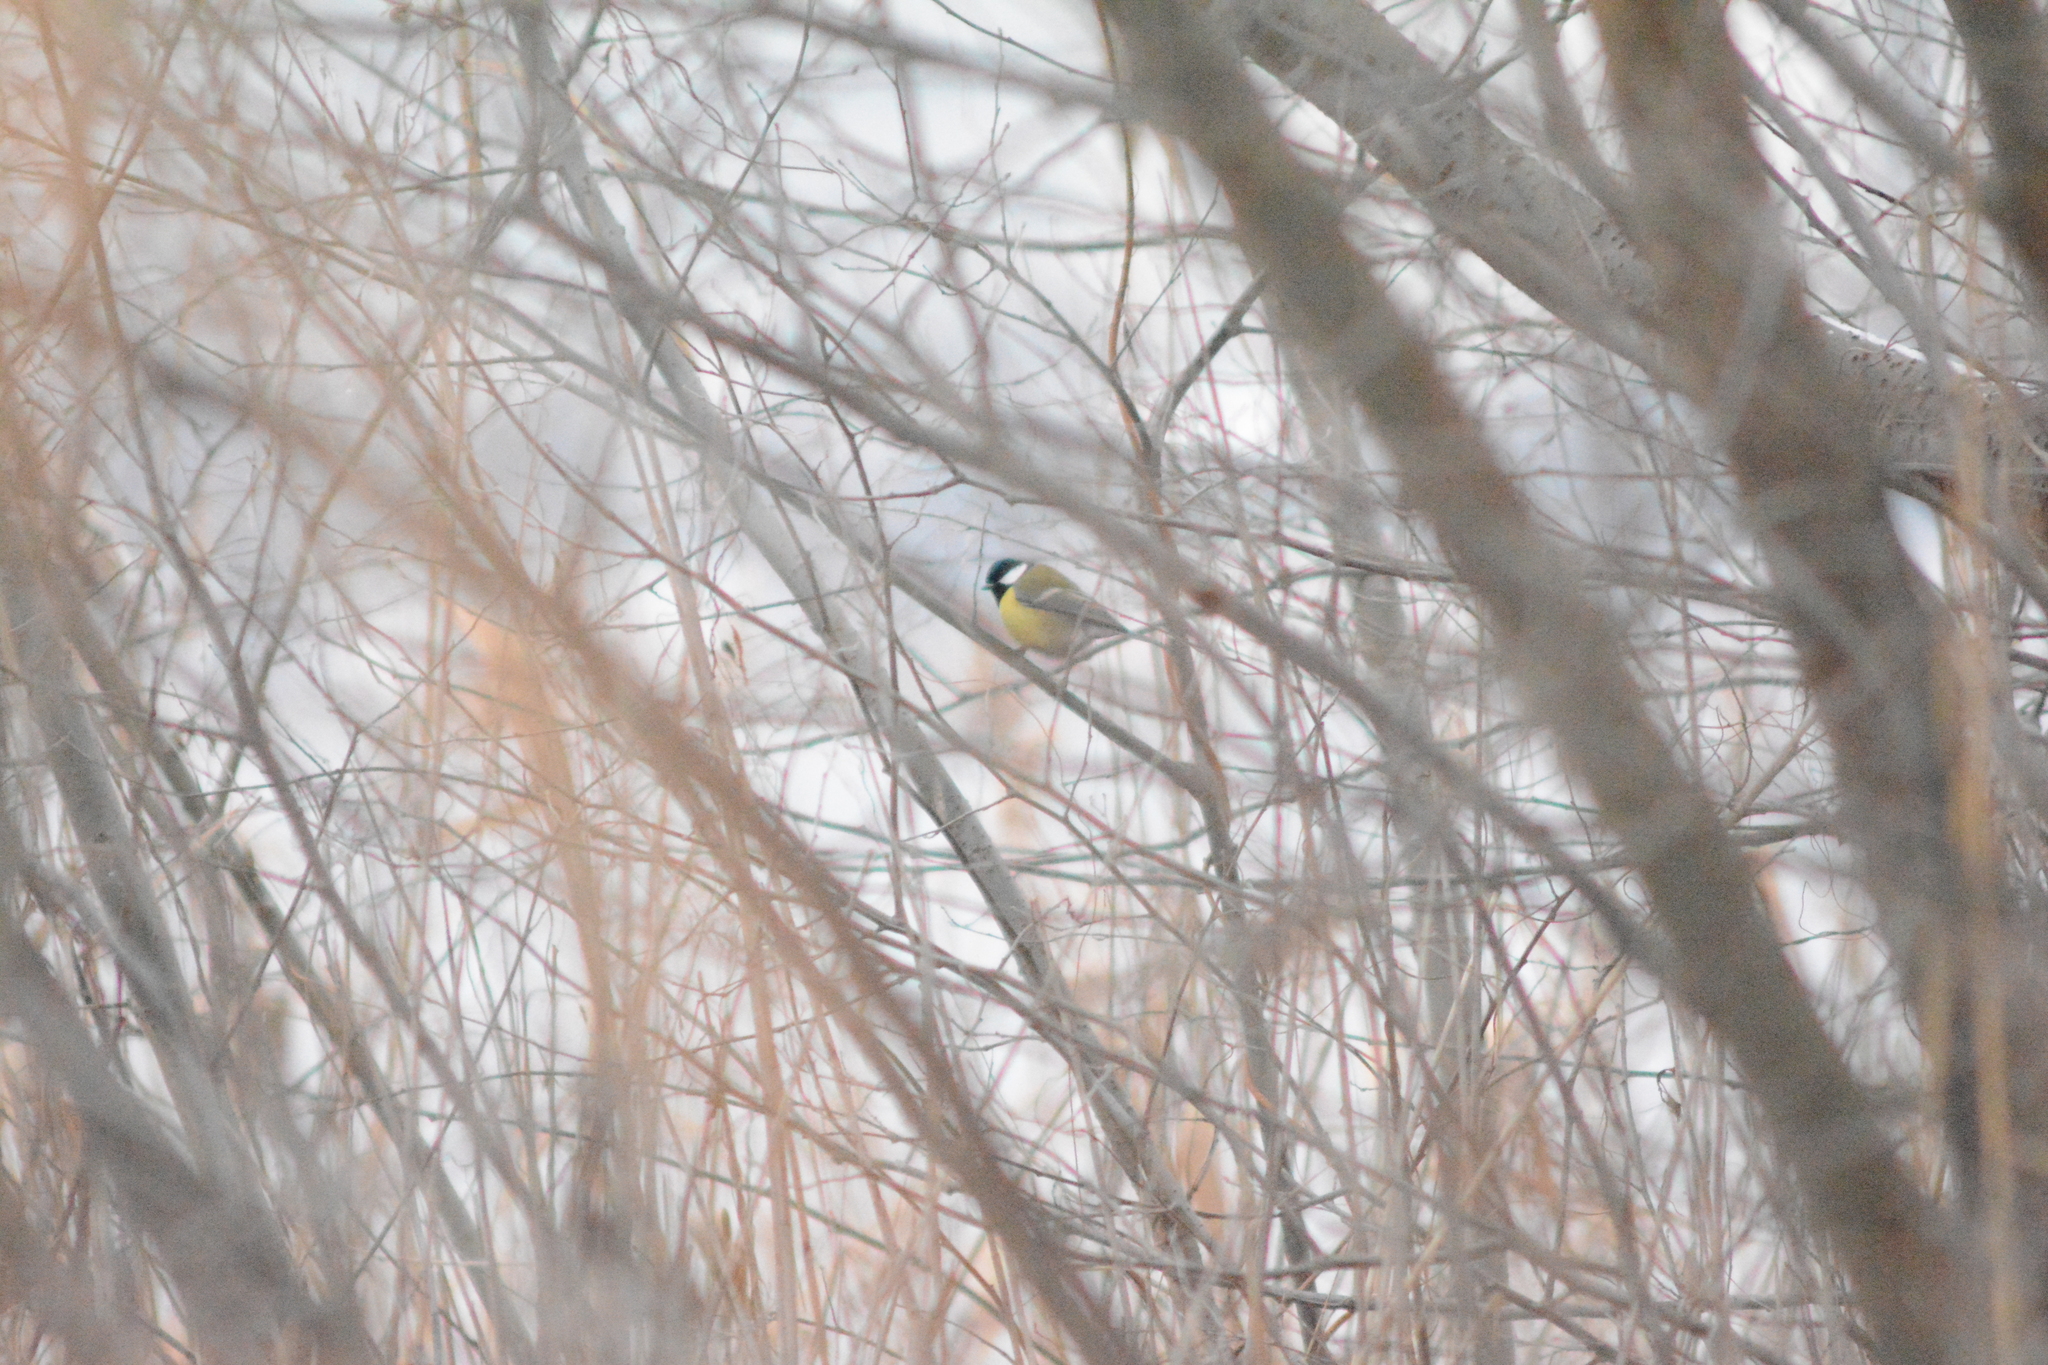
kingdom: Animalia
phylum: Chordata
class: Aves
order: Passeriformes
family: Paridae
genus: Parus
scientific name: Parus major
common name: Great tit
